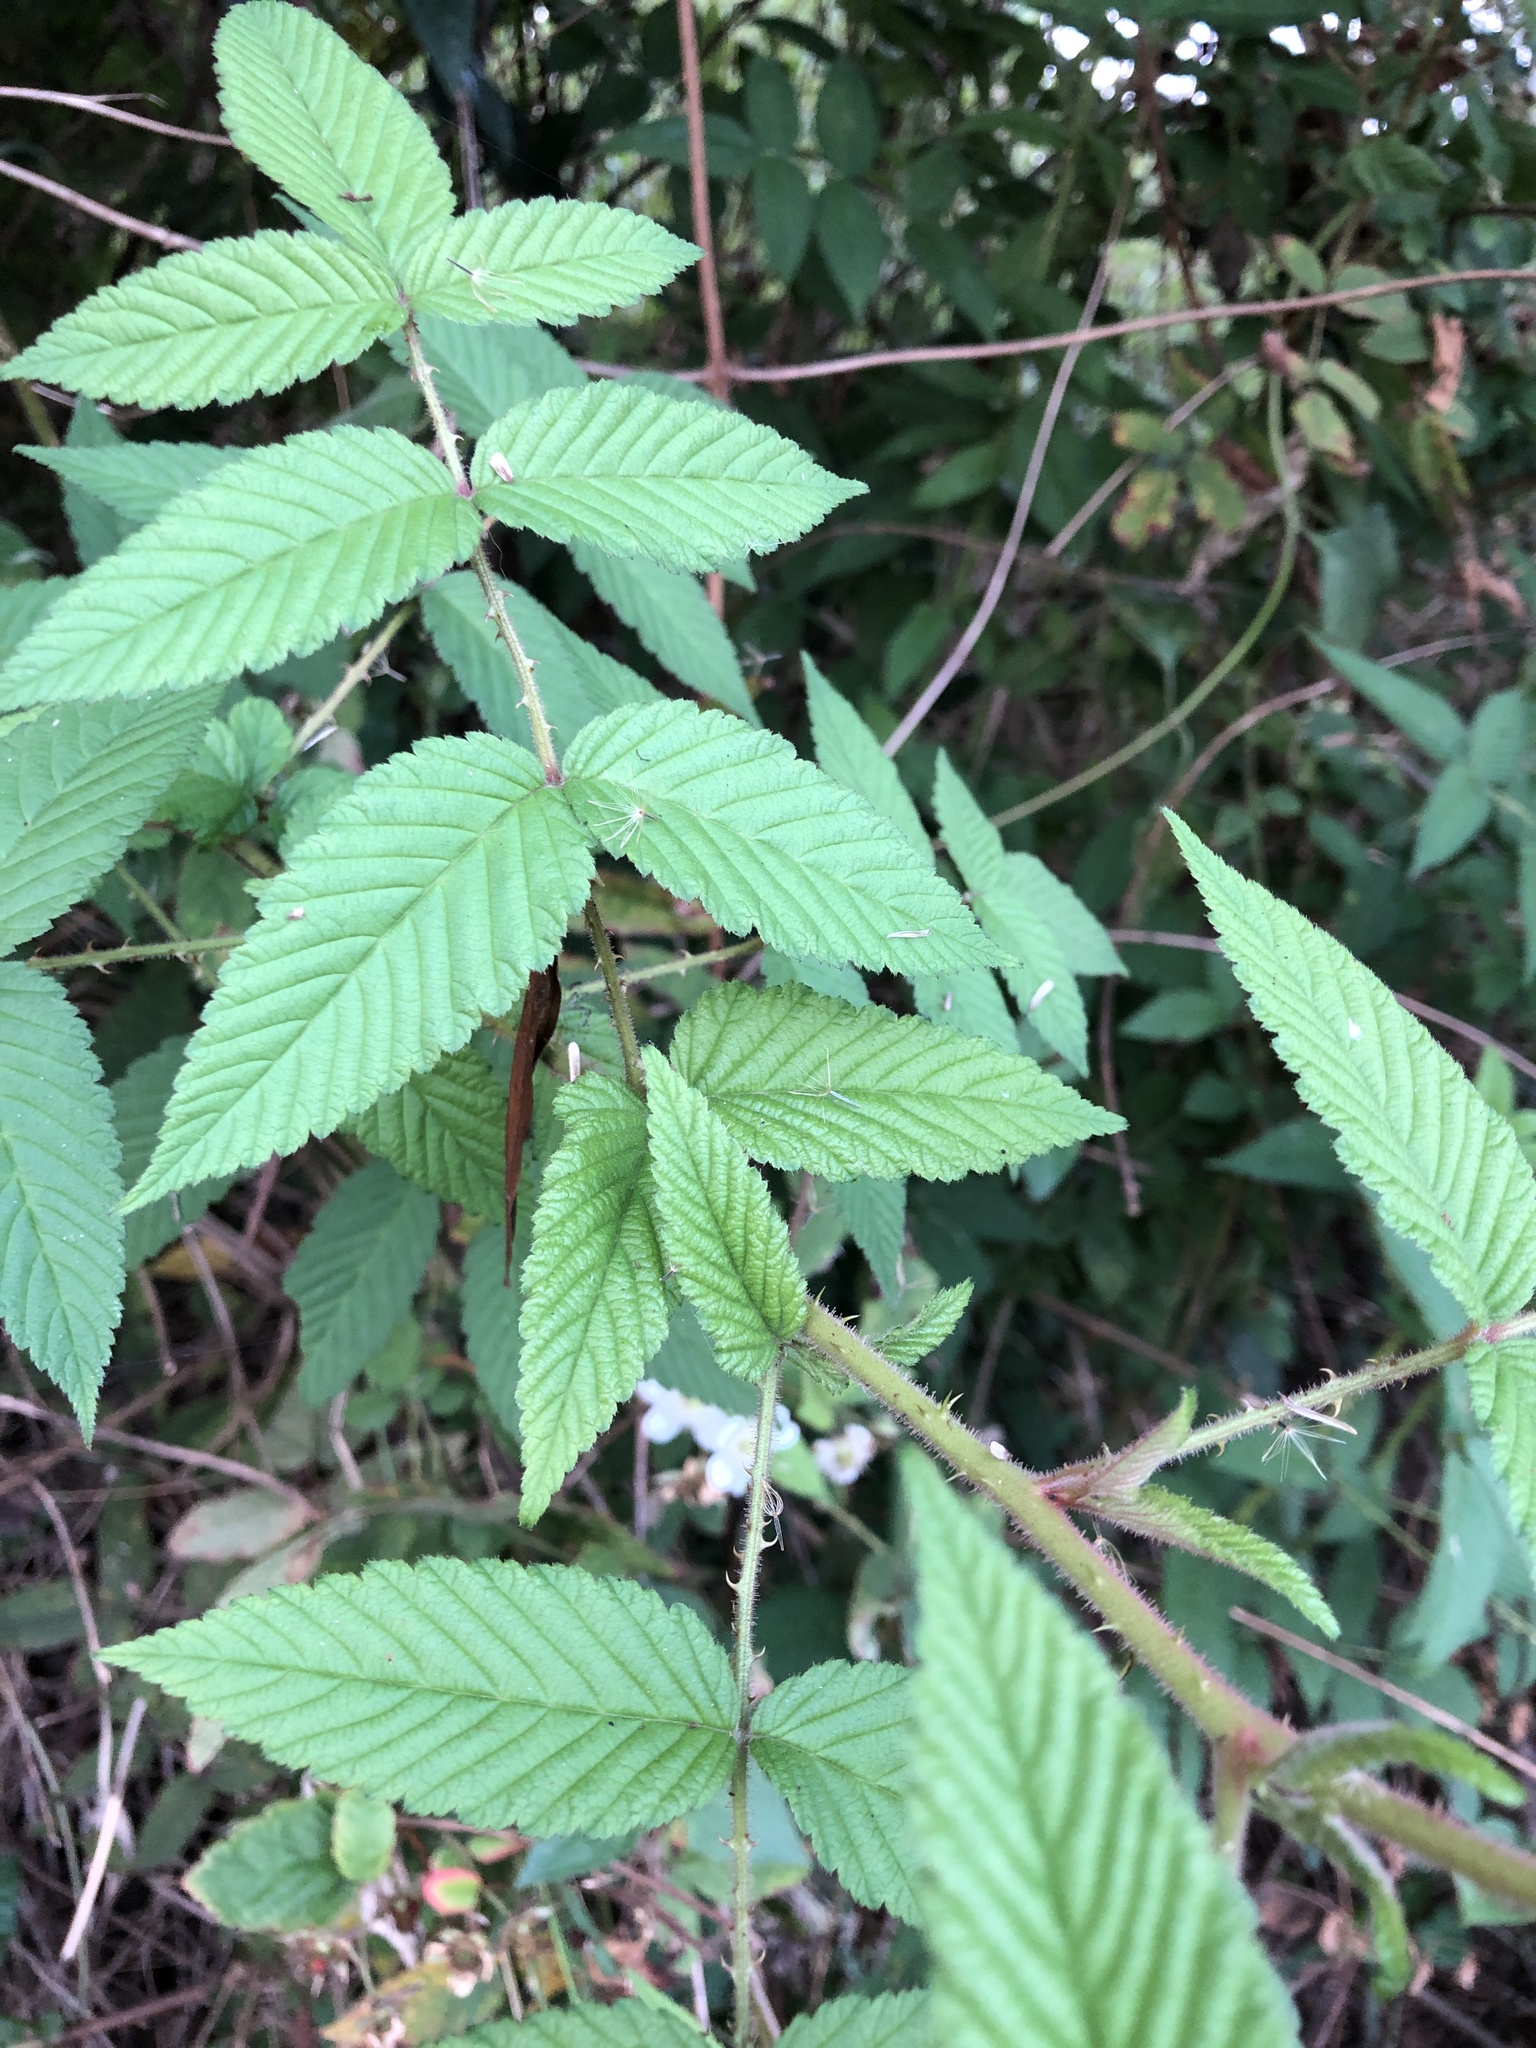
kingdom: Plantae
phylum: Tracheophyta
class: Magnoliopsida
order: Rosales
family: Rosaceae
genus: Rubus
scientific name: Rubus croceacanthus
